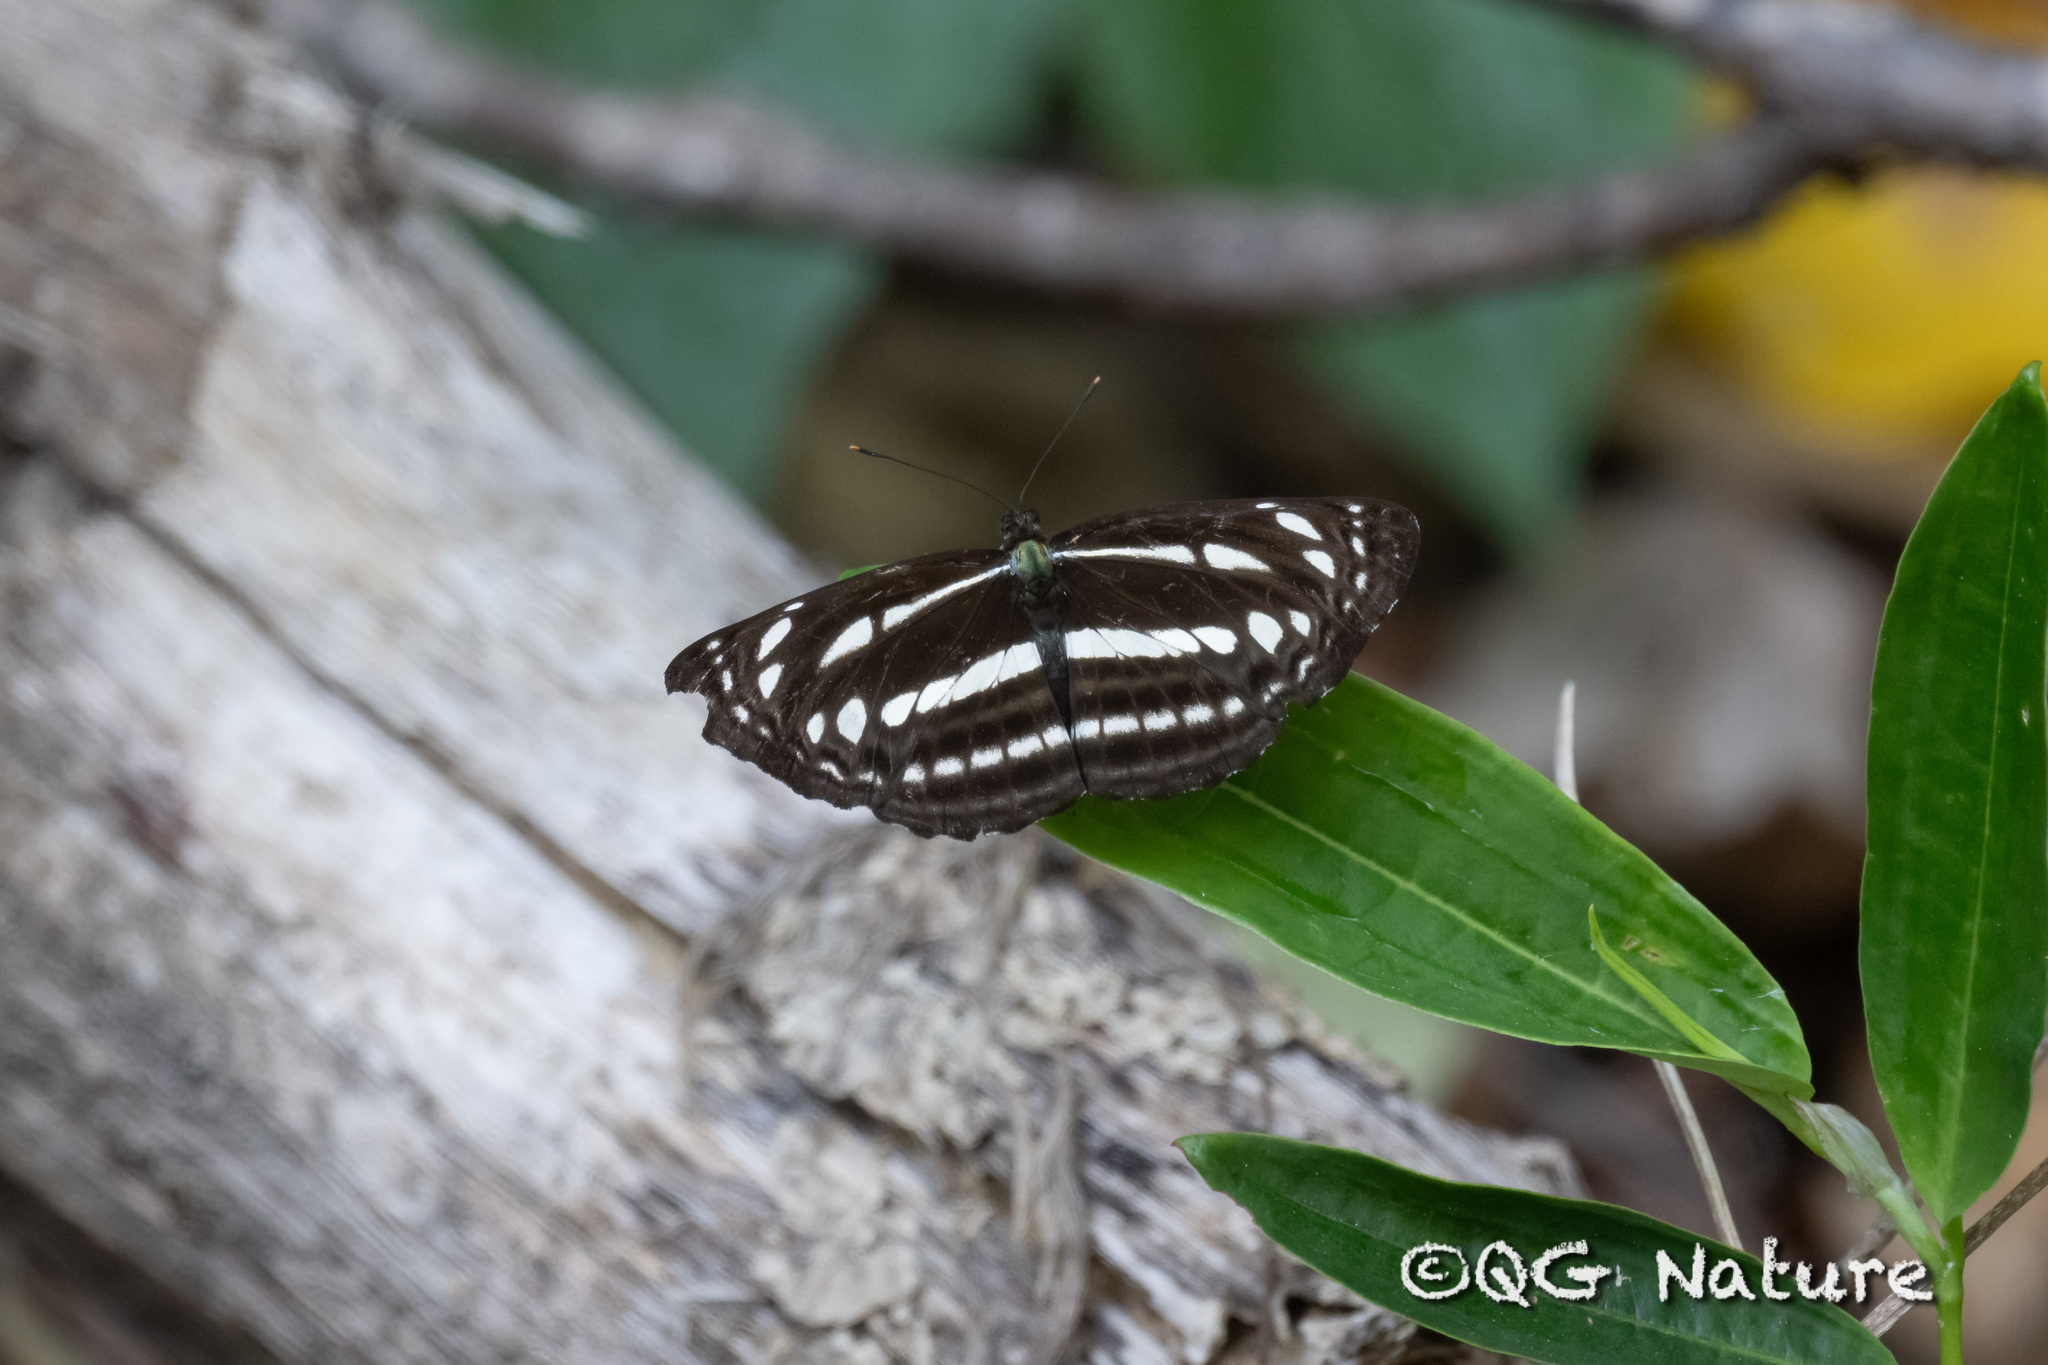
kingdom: Animalia
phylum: Arthropoda
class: Insecta
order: Lepidoptera
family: Nymphalidae
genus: Neptis
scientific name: Neptis nata
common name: Sullied brown sailer
